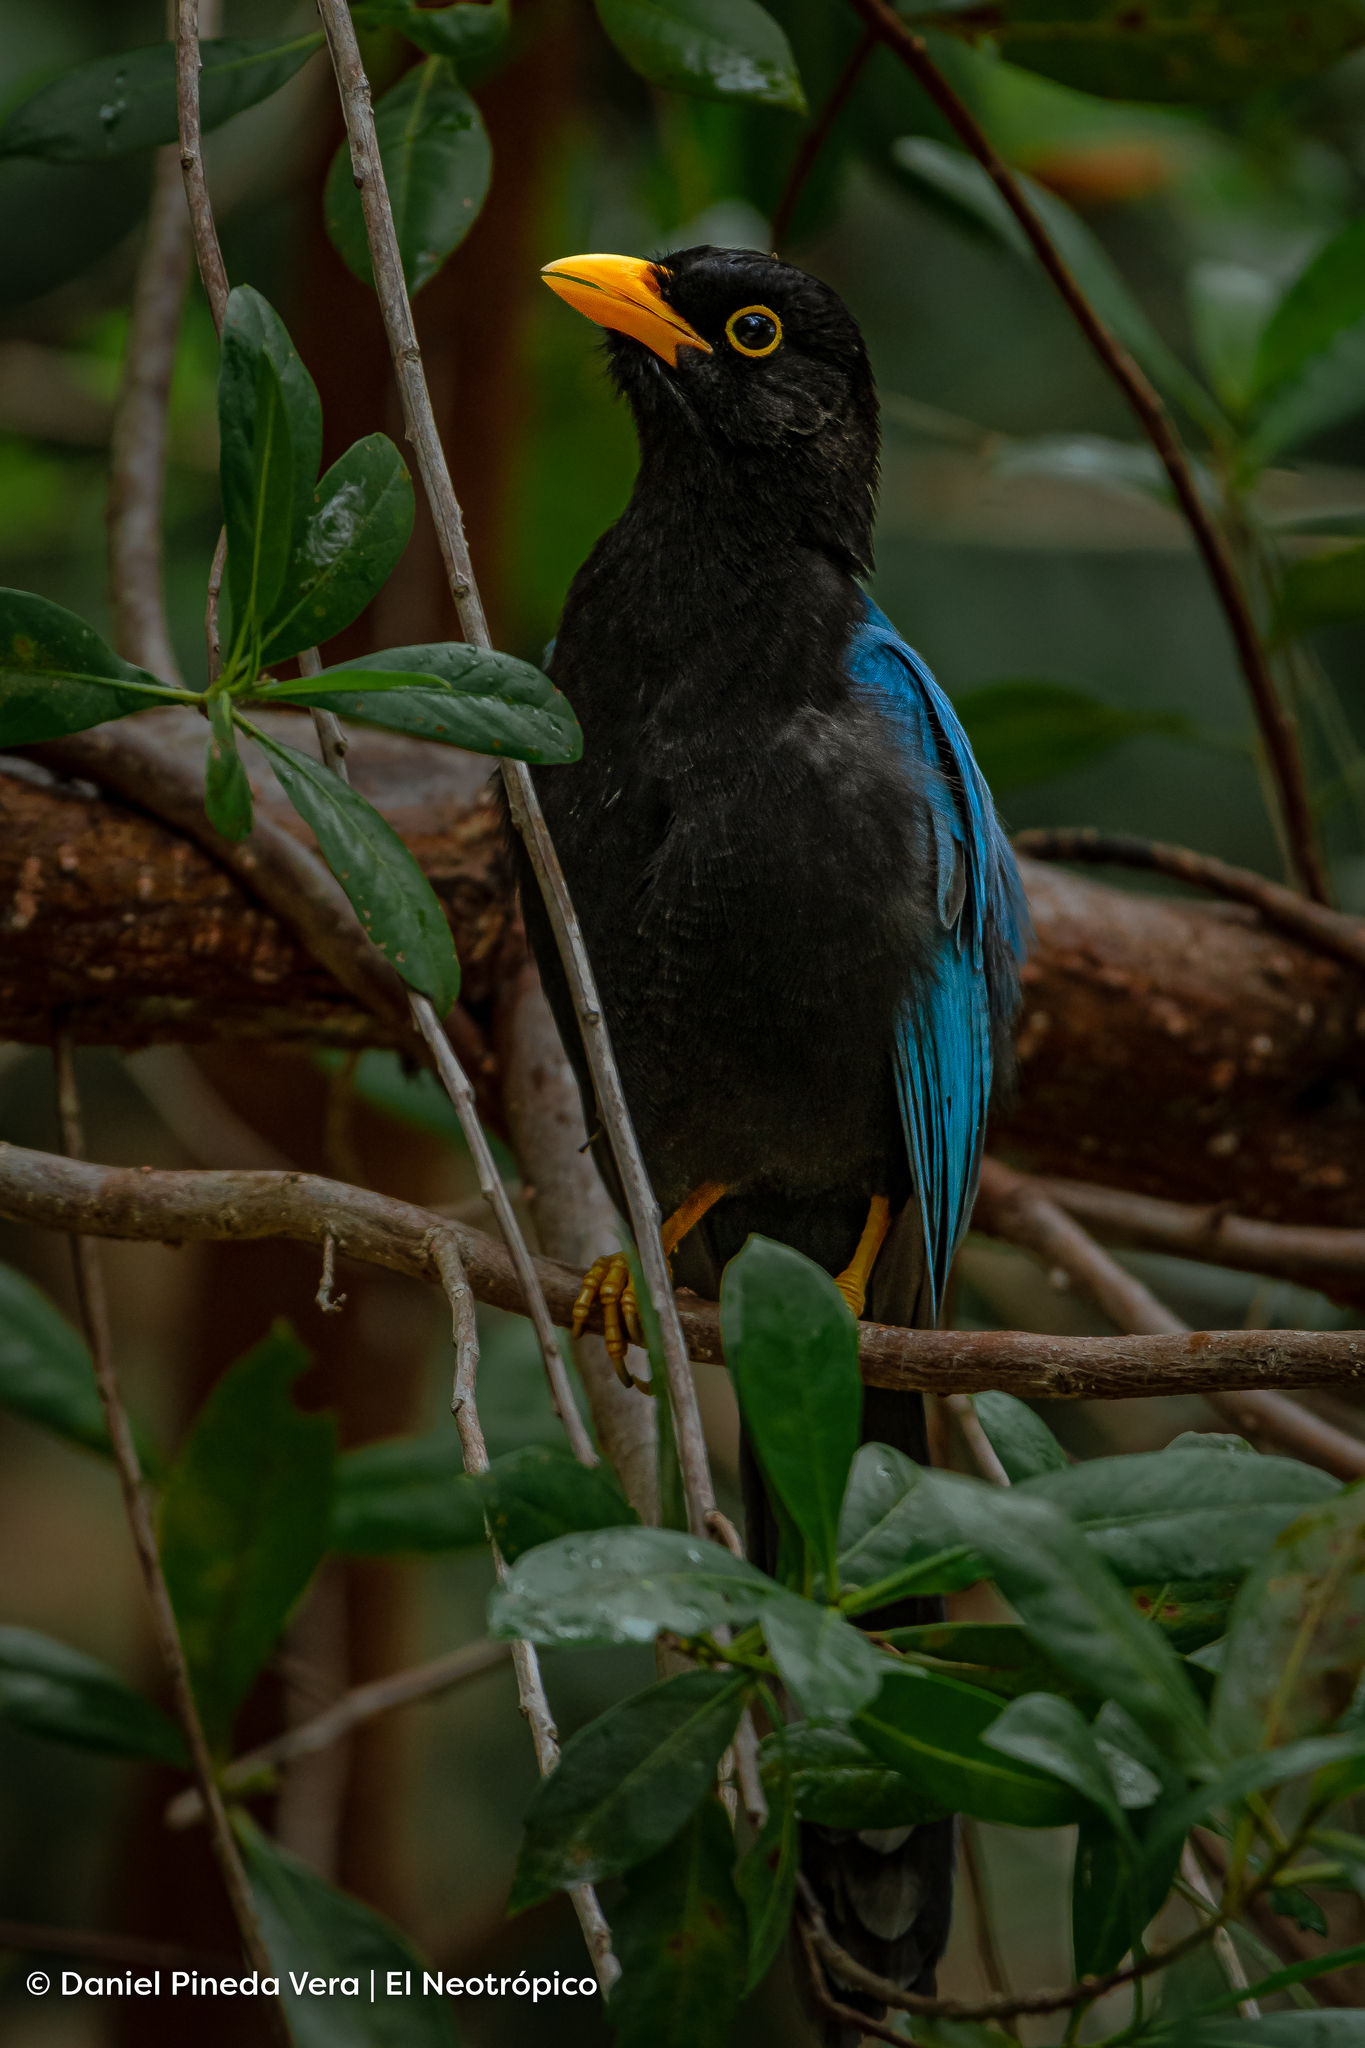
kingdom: Animalia
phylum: Chordata
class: Aves
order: Passeriformes
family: Corvidae
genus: Cyanocorax
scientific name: Cyanocorax yucatanicus
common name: Yucatan jay
